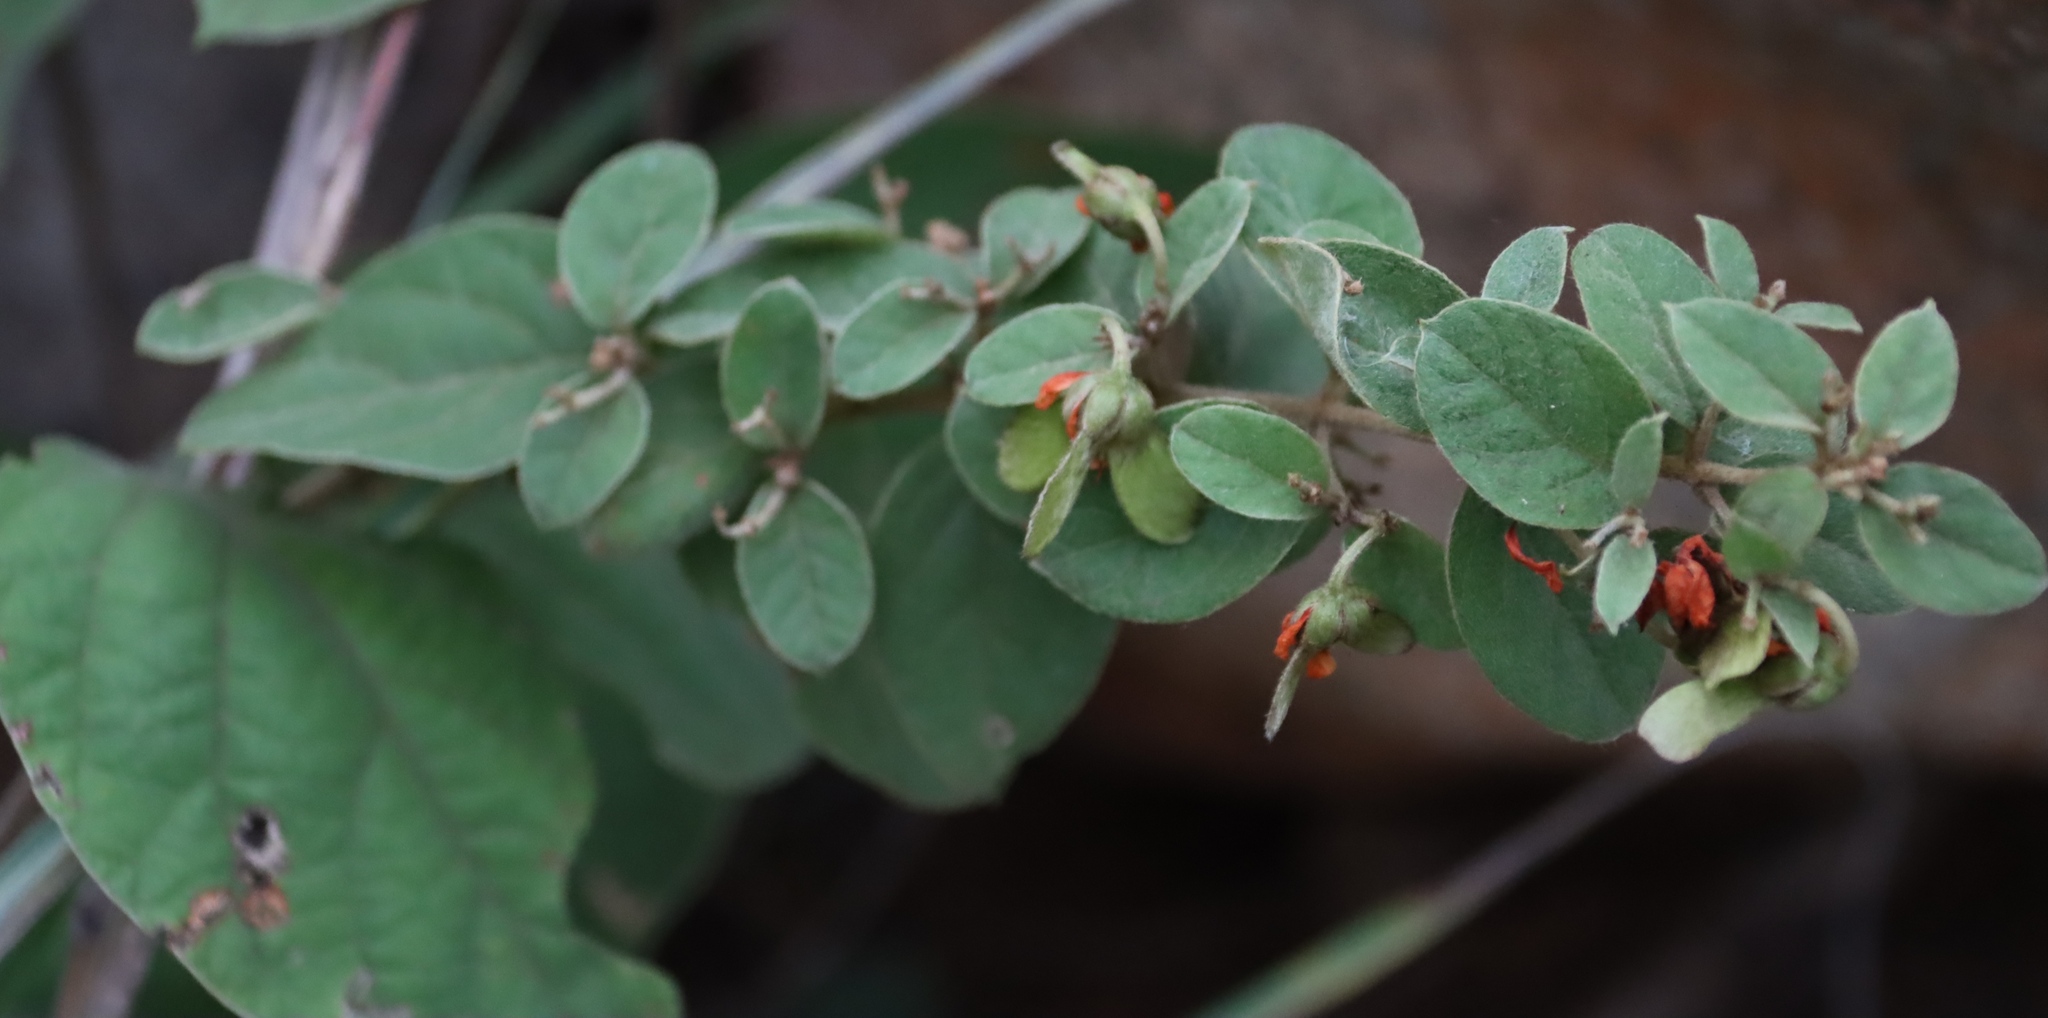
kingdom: Plantae
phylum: Tracheophyta
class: Magnoliopsida
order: Malpighiales
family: Malpighiaceae
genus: Sphedamnocarpus
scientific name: Sphedamnocarpus pruriens
